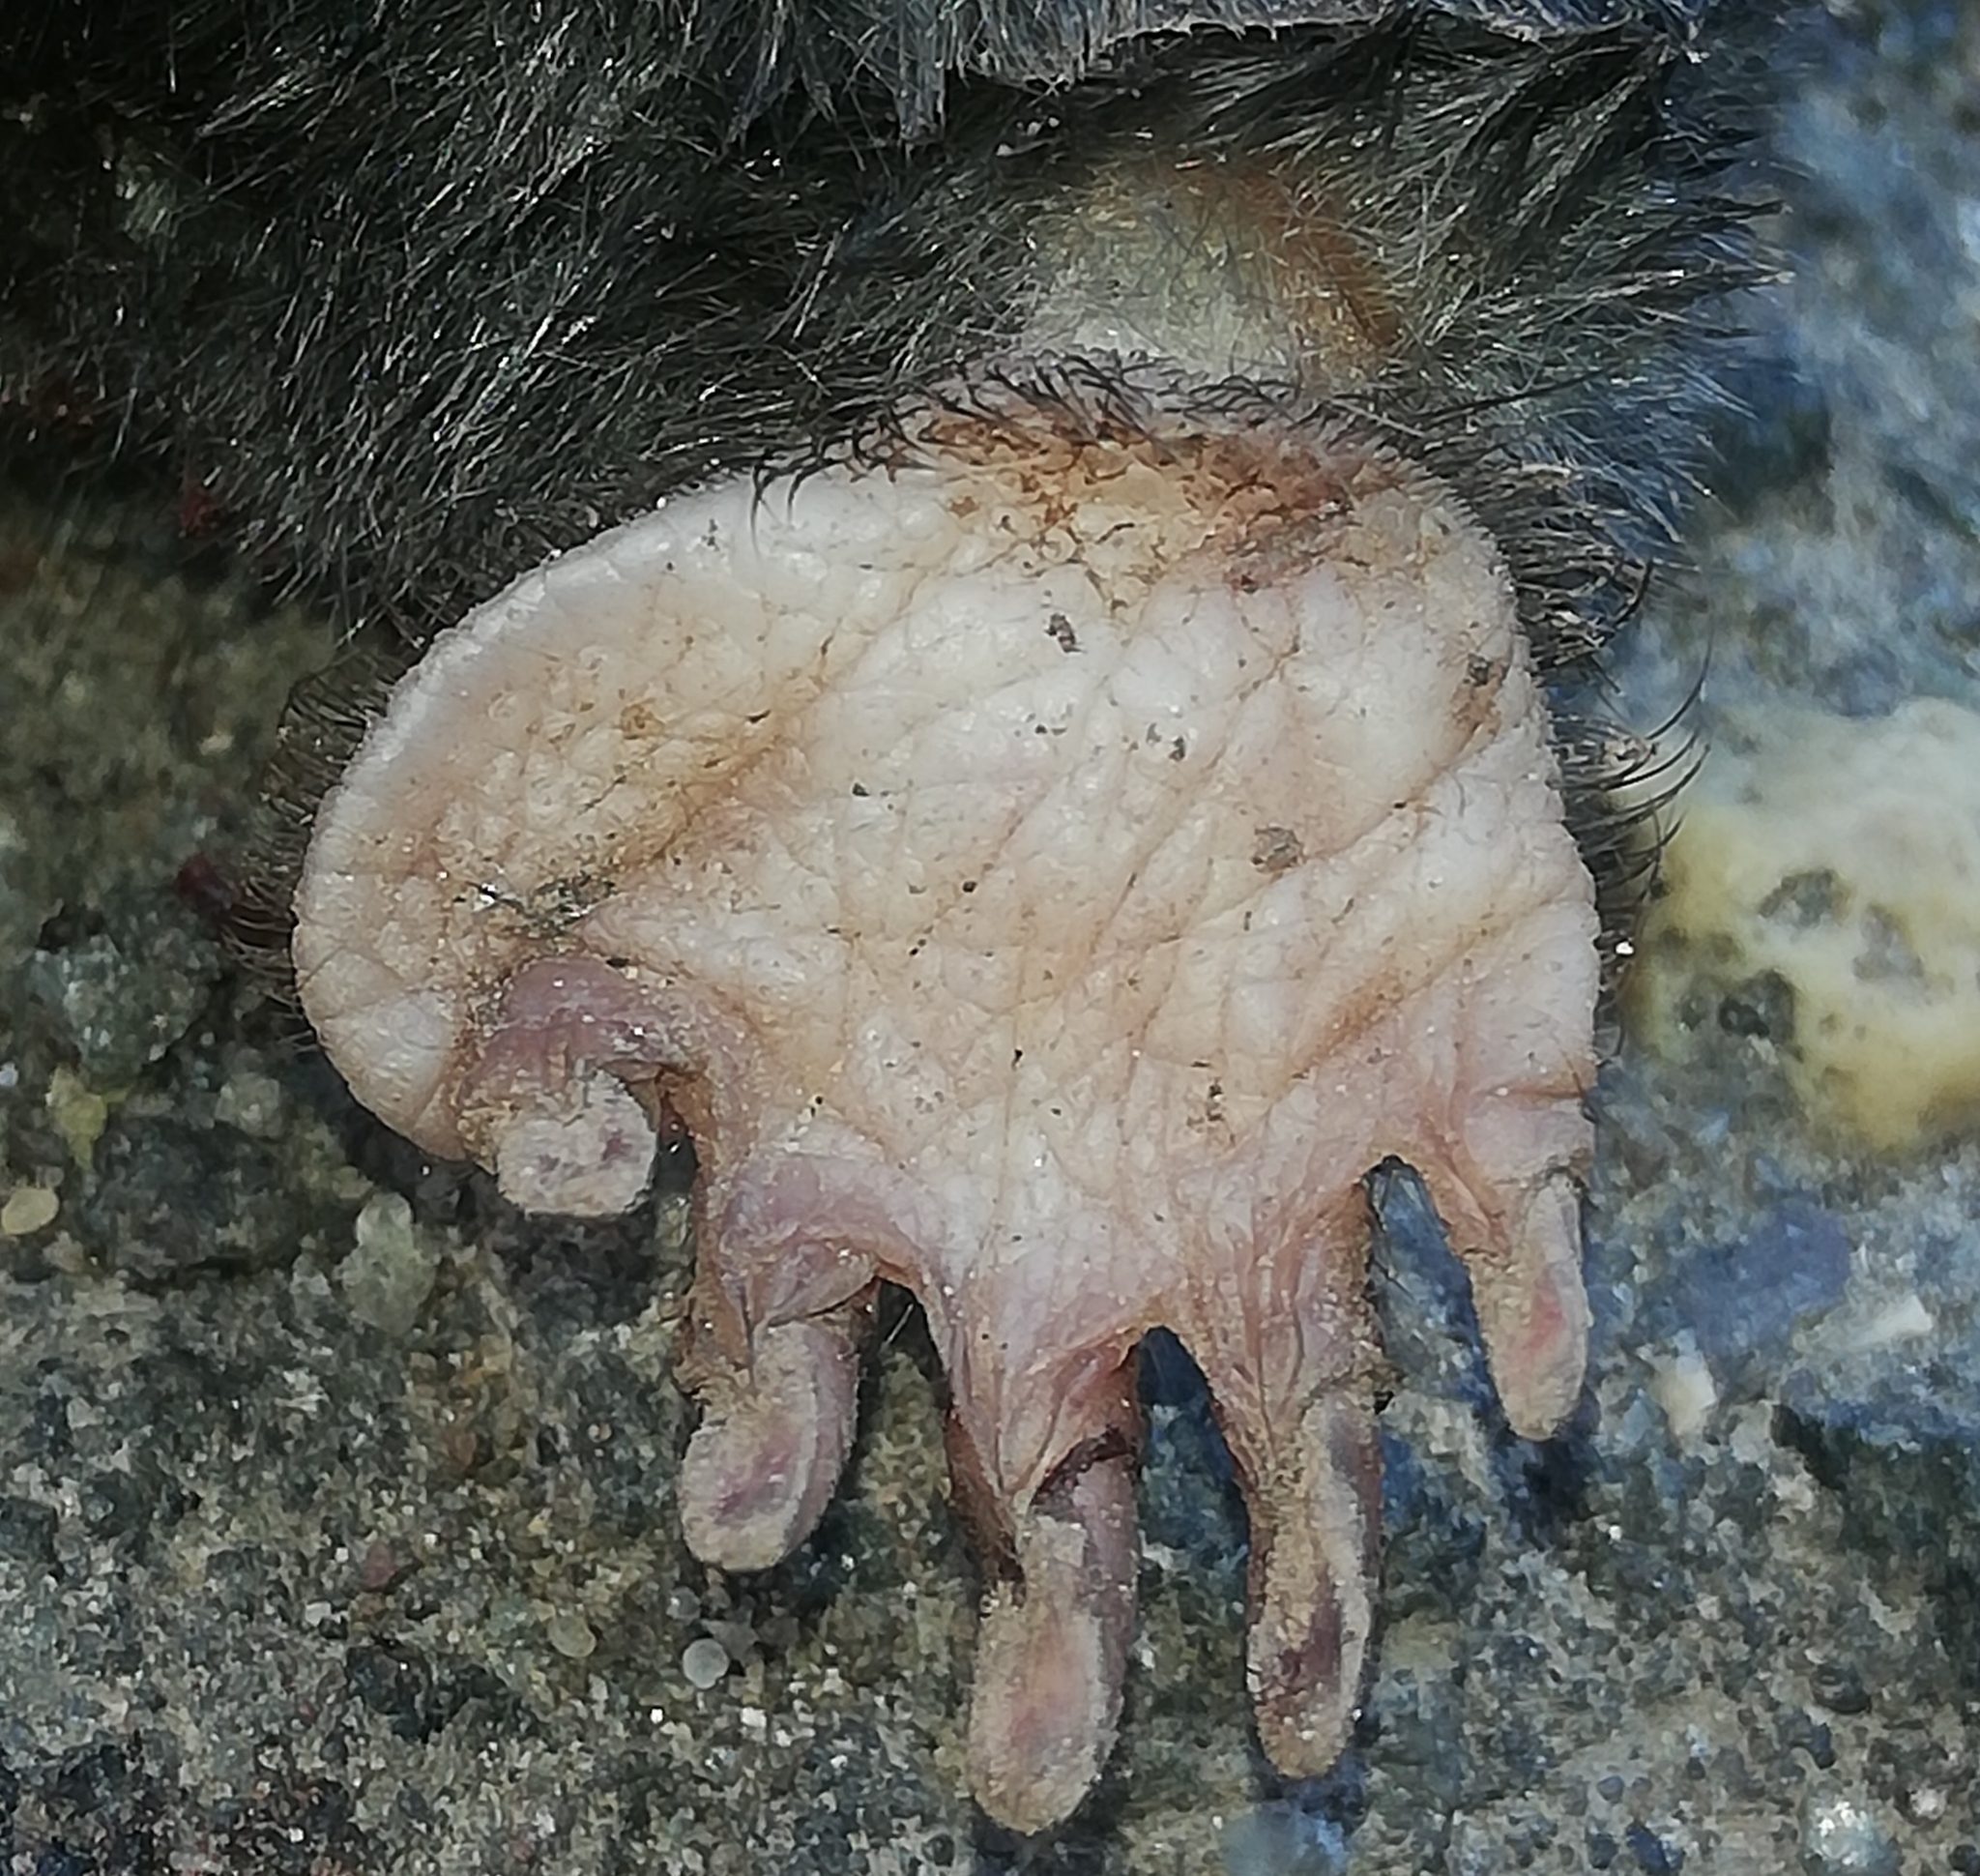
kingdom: Animalia
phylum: Chordata
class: Mammalia
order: Soricomorpha
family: Talpidae
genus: Talpa
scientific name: Talpa europaea
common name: European mole
